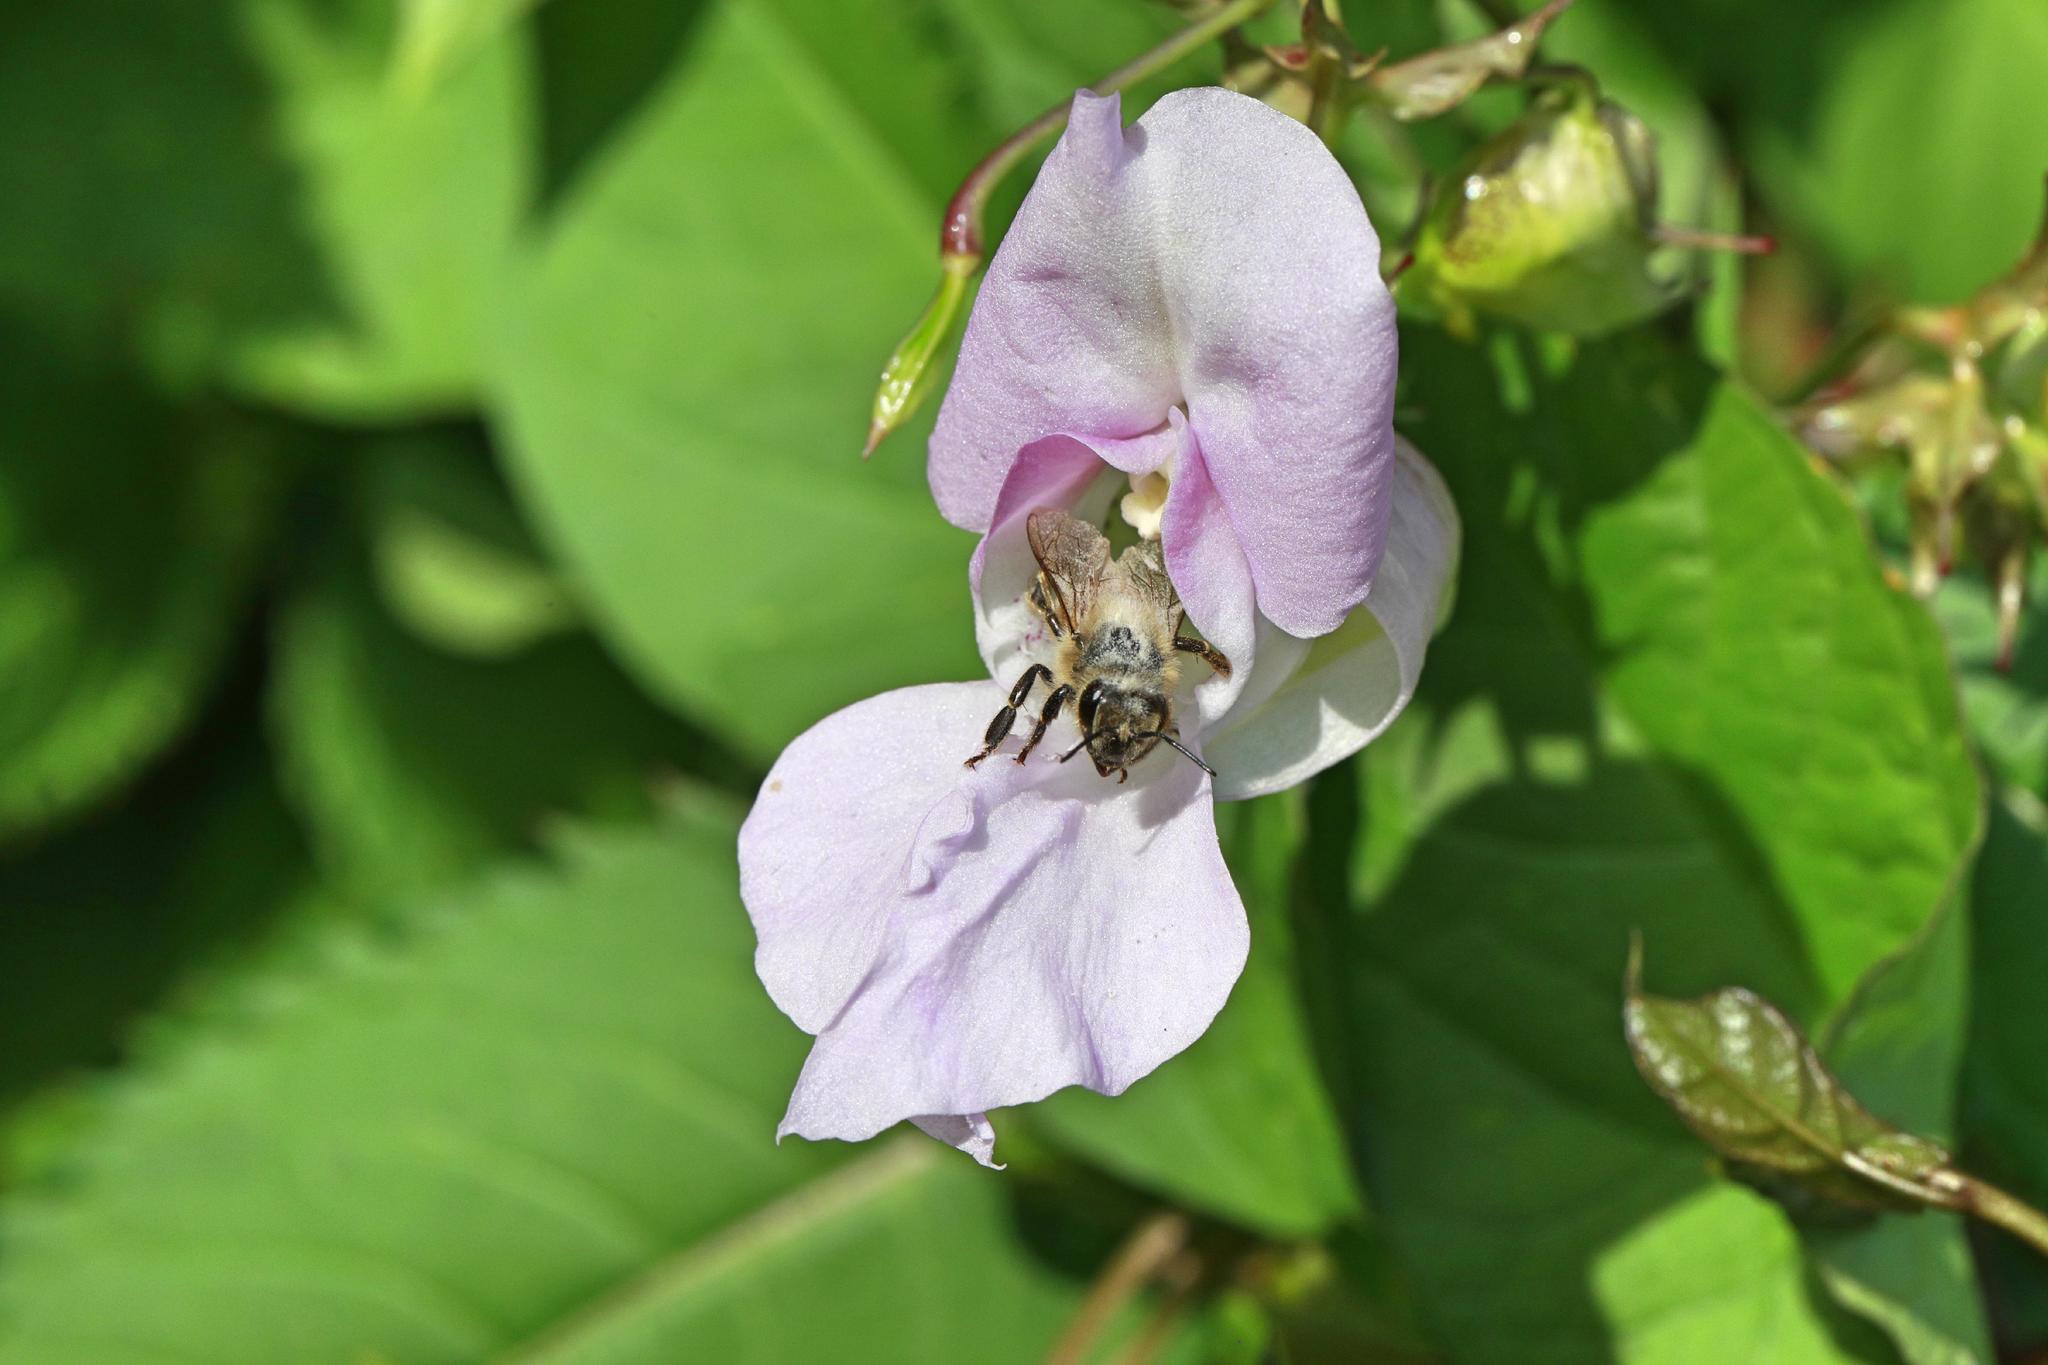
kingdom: Plantae
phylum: Tracheophyta
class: Magnoliopsida
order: Ericales
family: Balsaminaceae
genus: Impatiens
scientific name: Impatiens glandulifera
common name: Himalayan balsam
